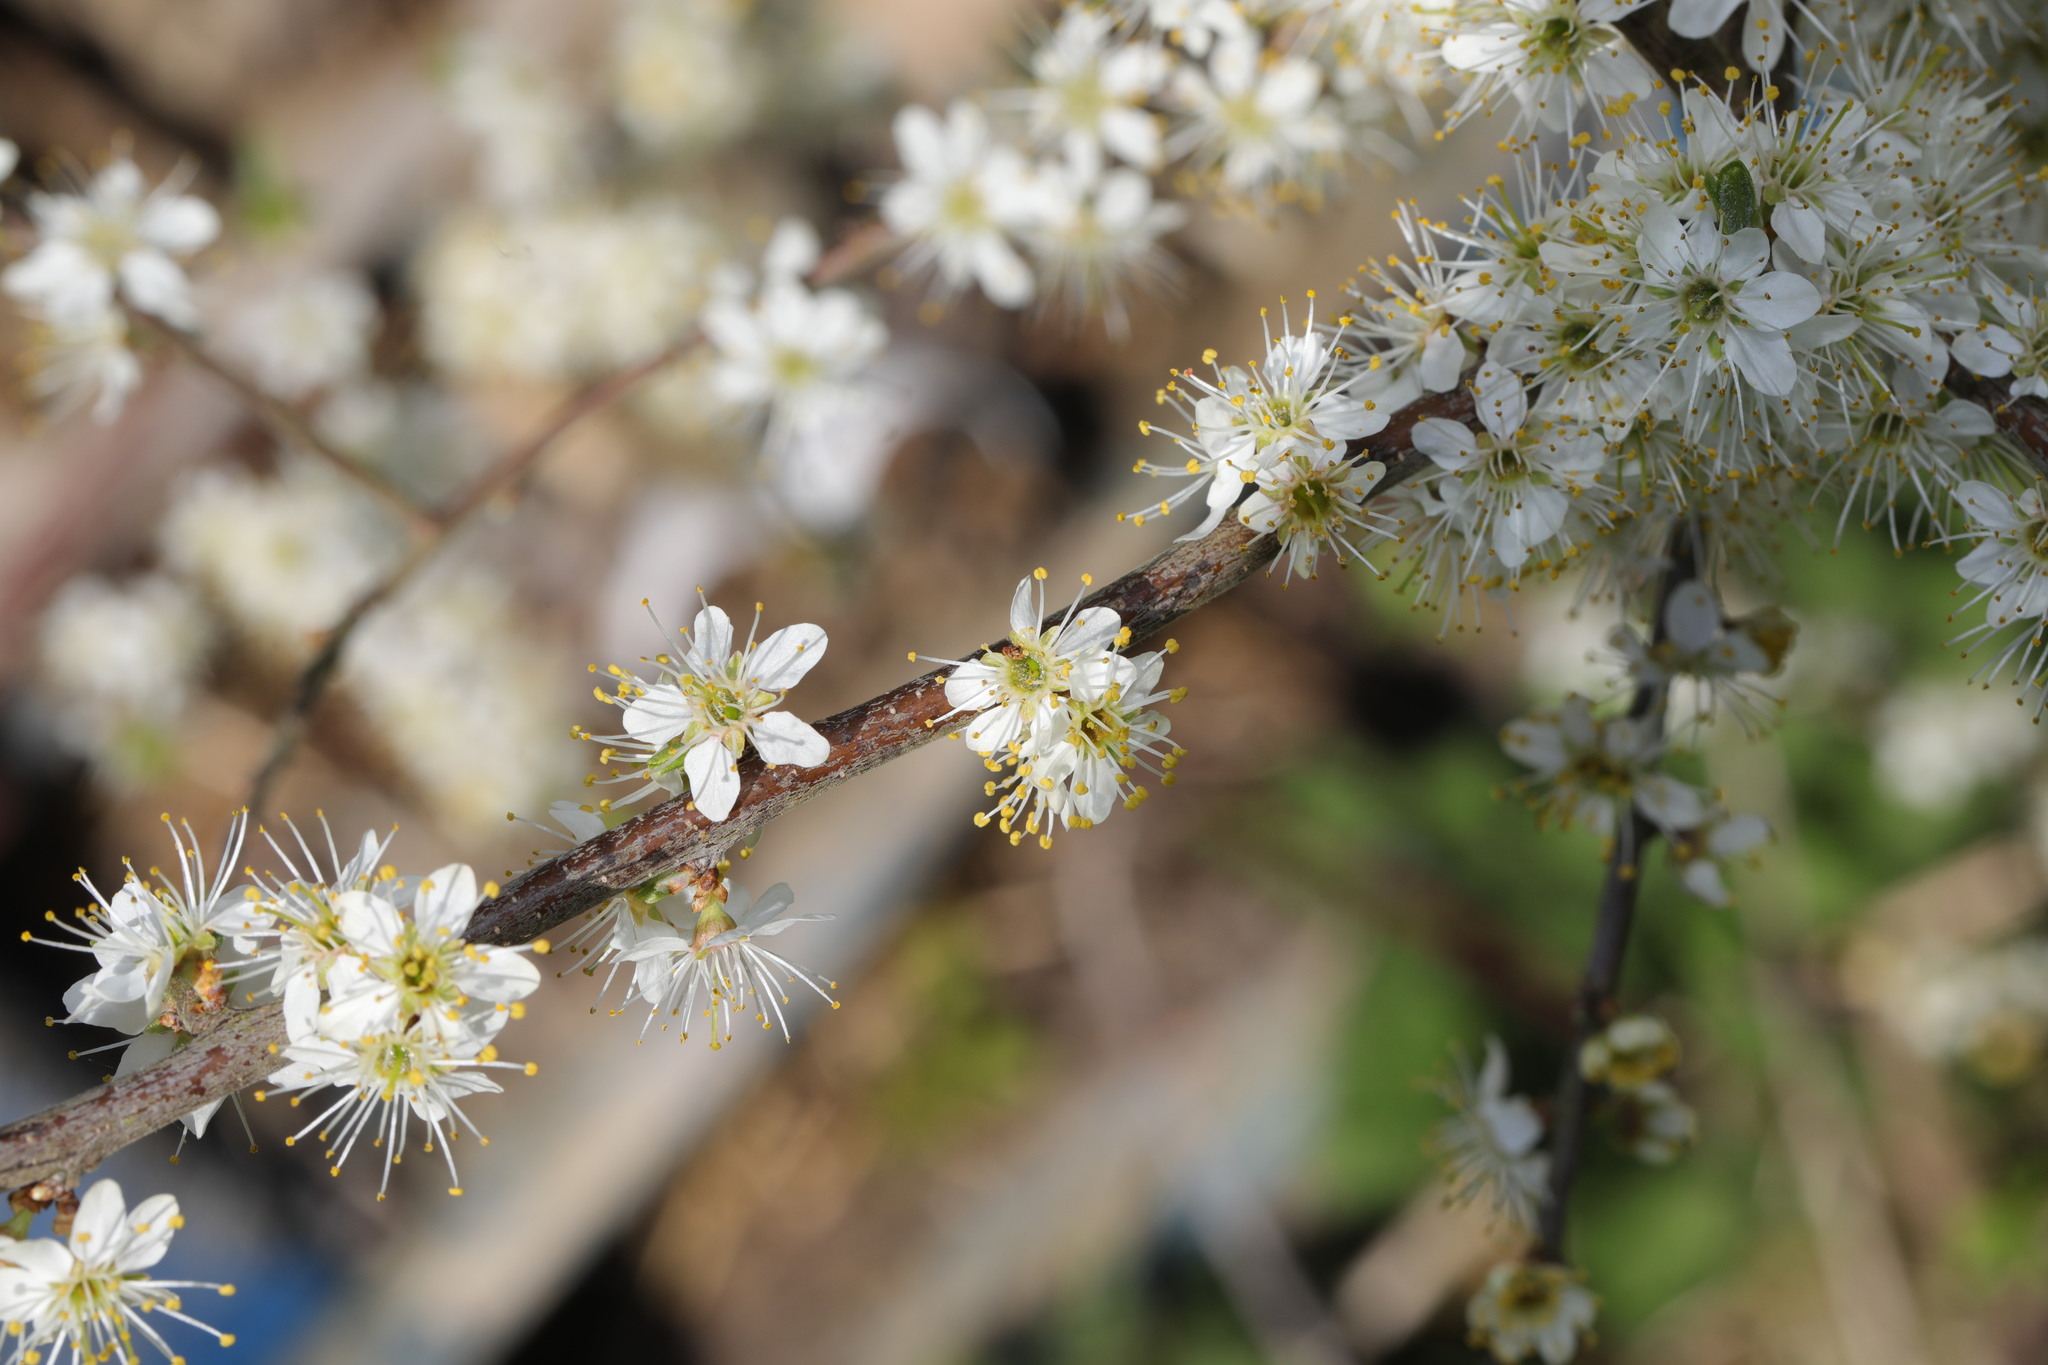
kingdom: Plantae
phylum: Tracheophyta
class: Magnoliopsida
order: Rosales
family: Rosaceae
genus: Prunus
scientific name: Prunus spinosa
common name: Blackthorn
